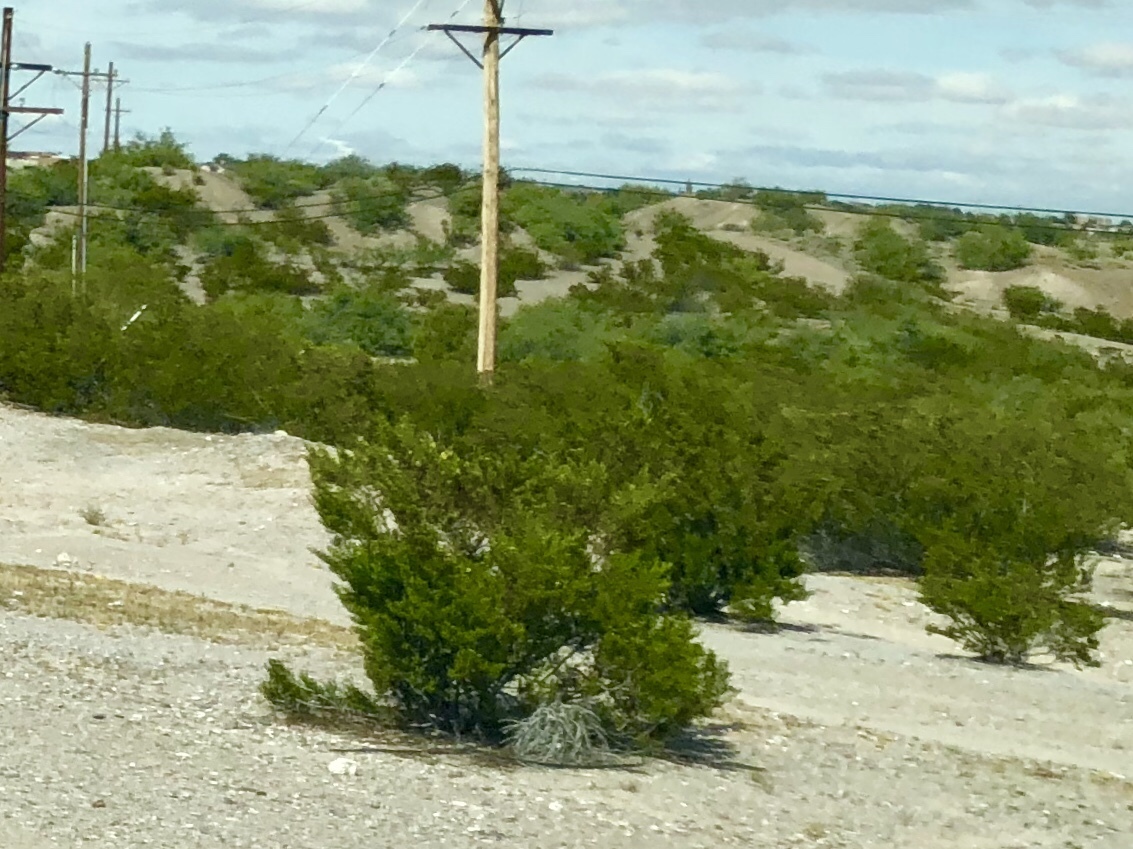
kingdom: Plantae
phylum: Tracheophyta
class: Magnoliopsida
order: Zygophyllales
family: Zygophyllaceae
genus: Larrea
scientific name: Larrea tridentata
